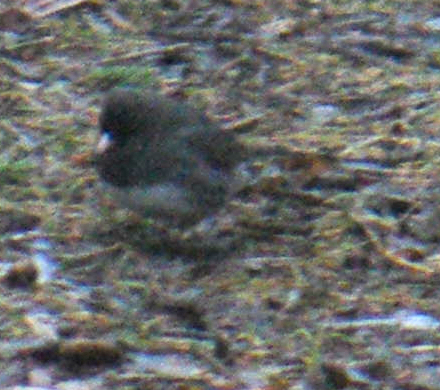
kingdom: Animalia
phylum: Chordata
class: Aves
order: Passeriformes
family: Passerellidae
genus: Junco
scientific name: Junco hyemalis
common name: Dark-eyed junco
